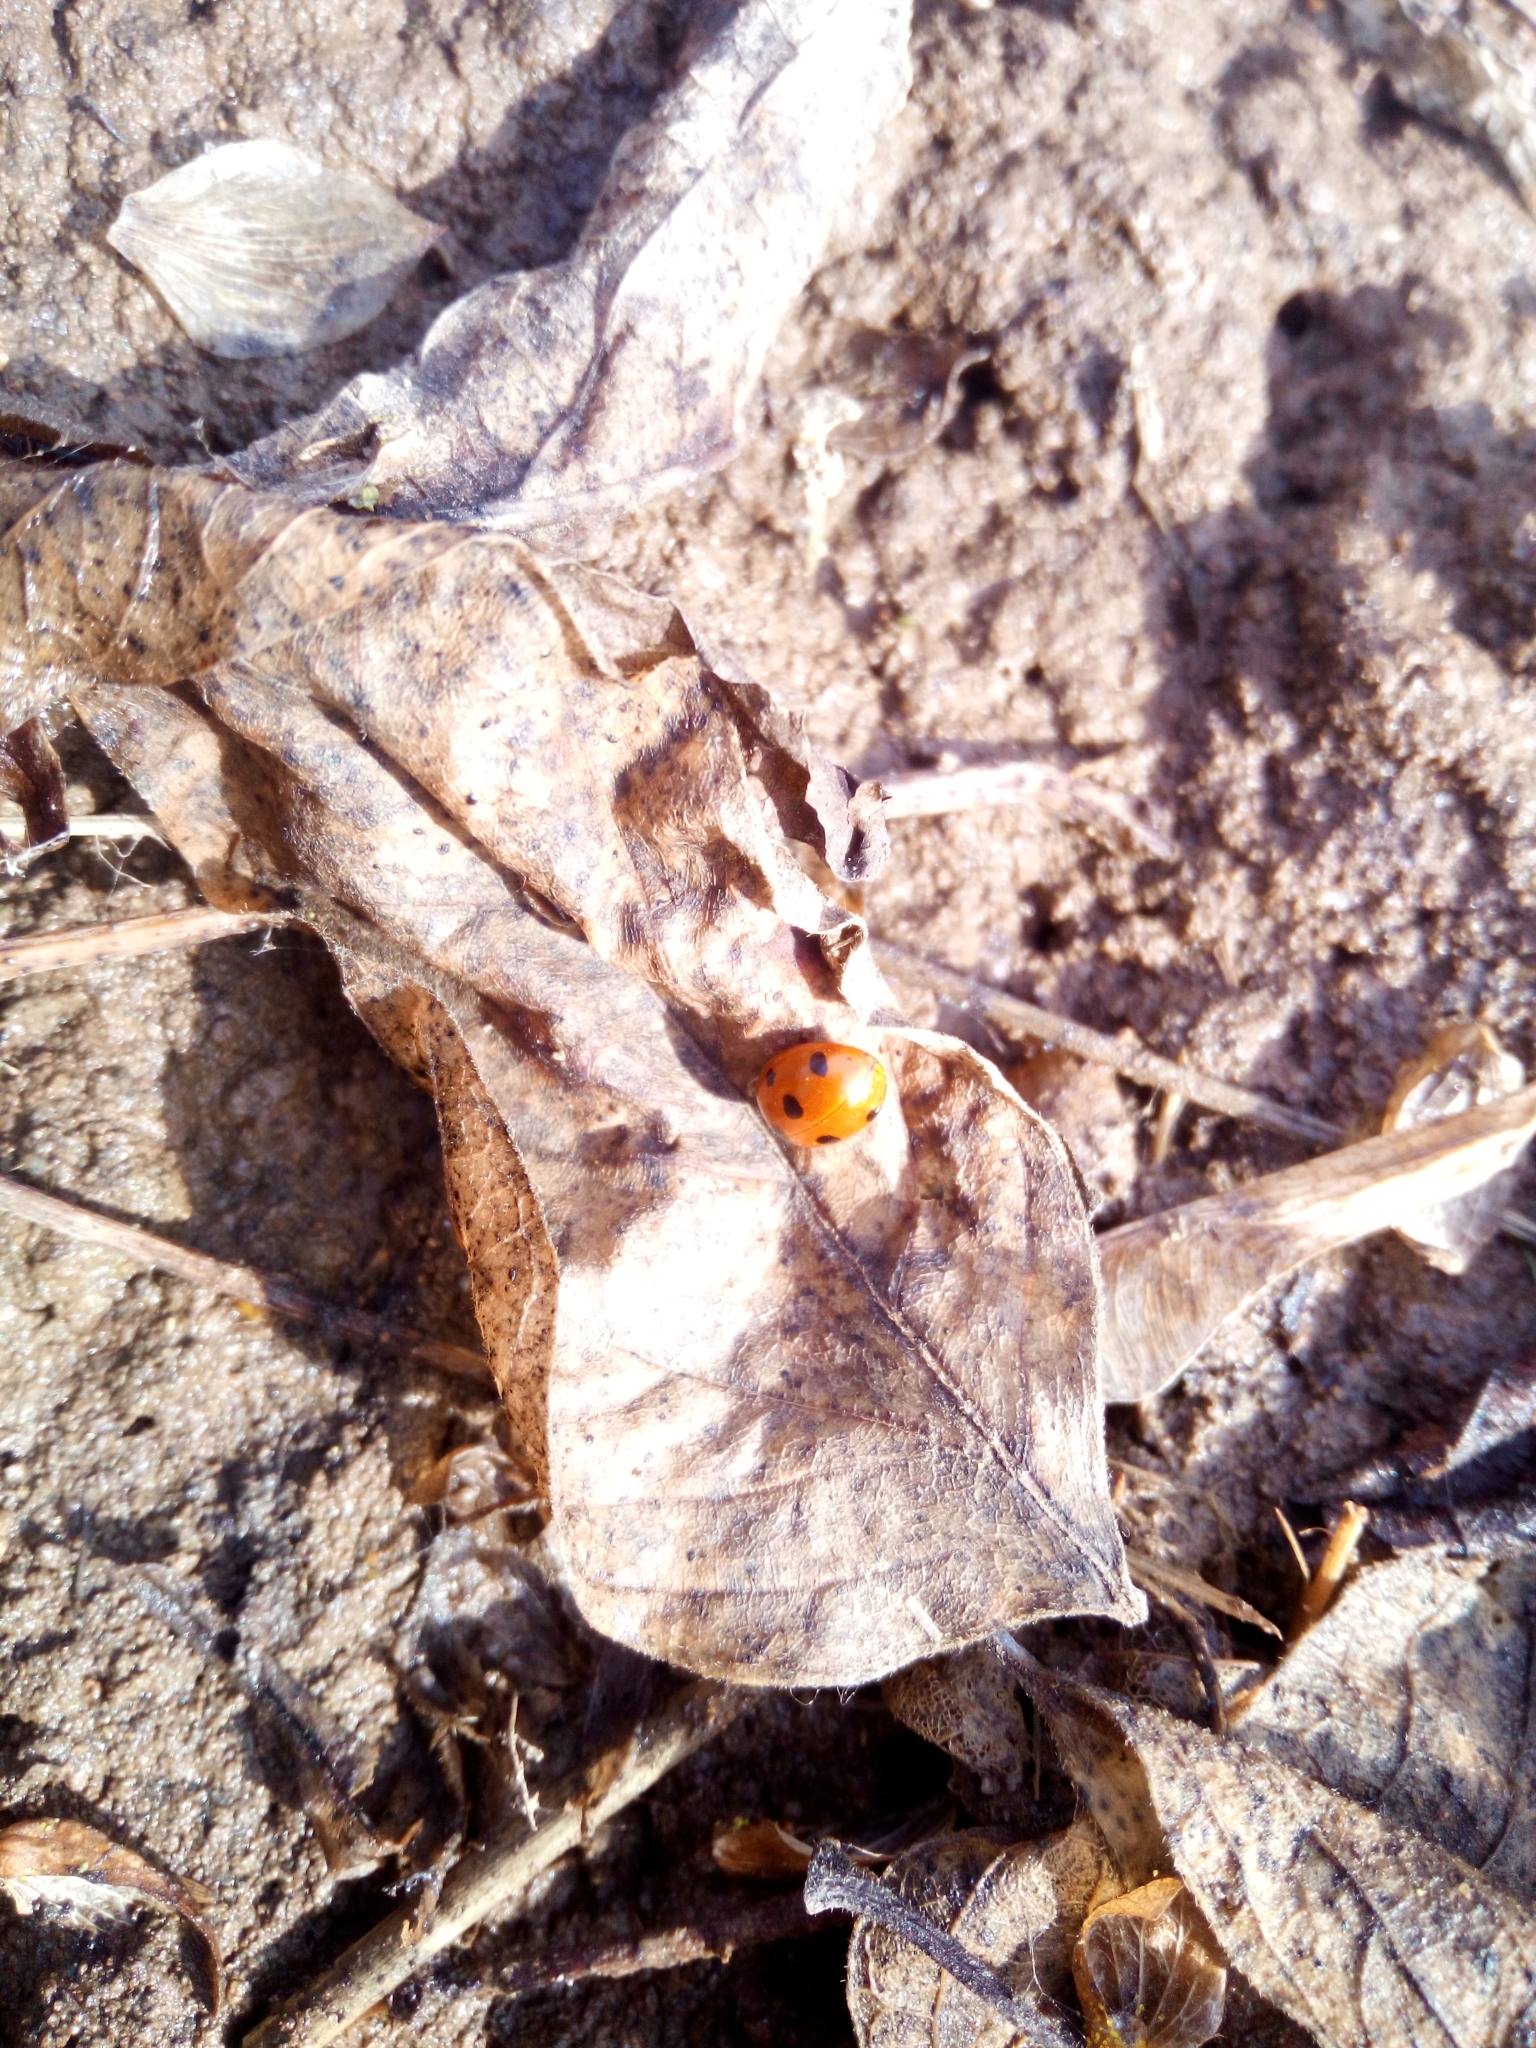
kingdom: Animalia
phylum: Arthropoda
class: Insecta
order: Coleoptera
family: Coccinellidae
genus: Coccinella
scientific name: Coccinella septempunctata
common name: Sevenspotted lady beetle
